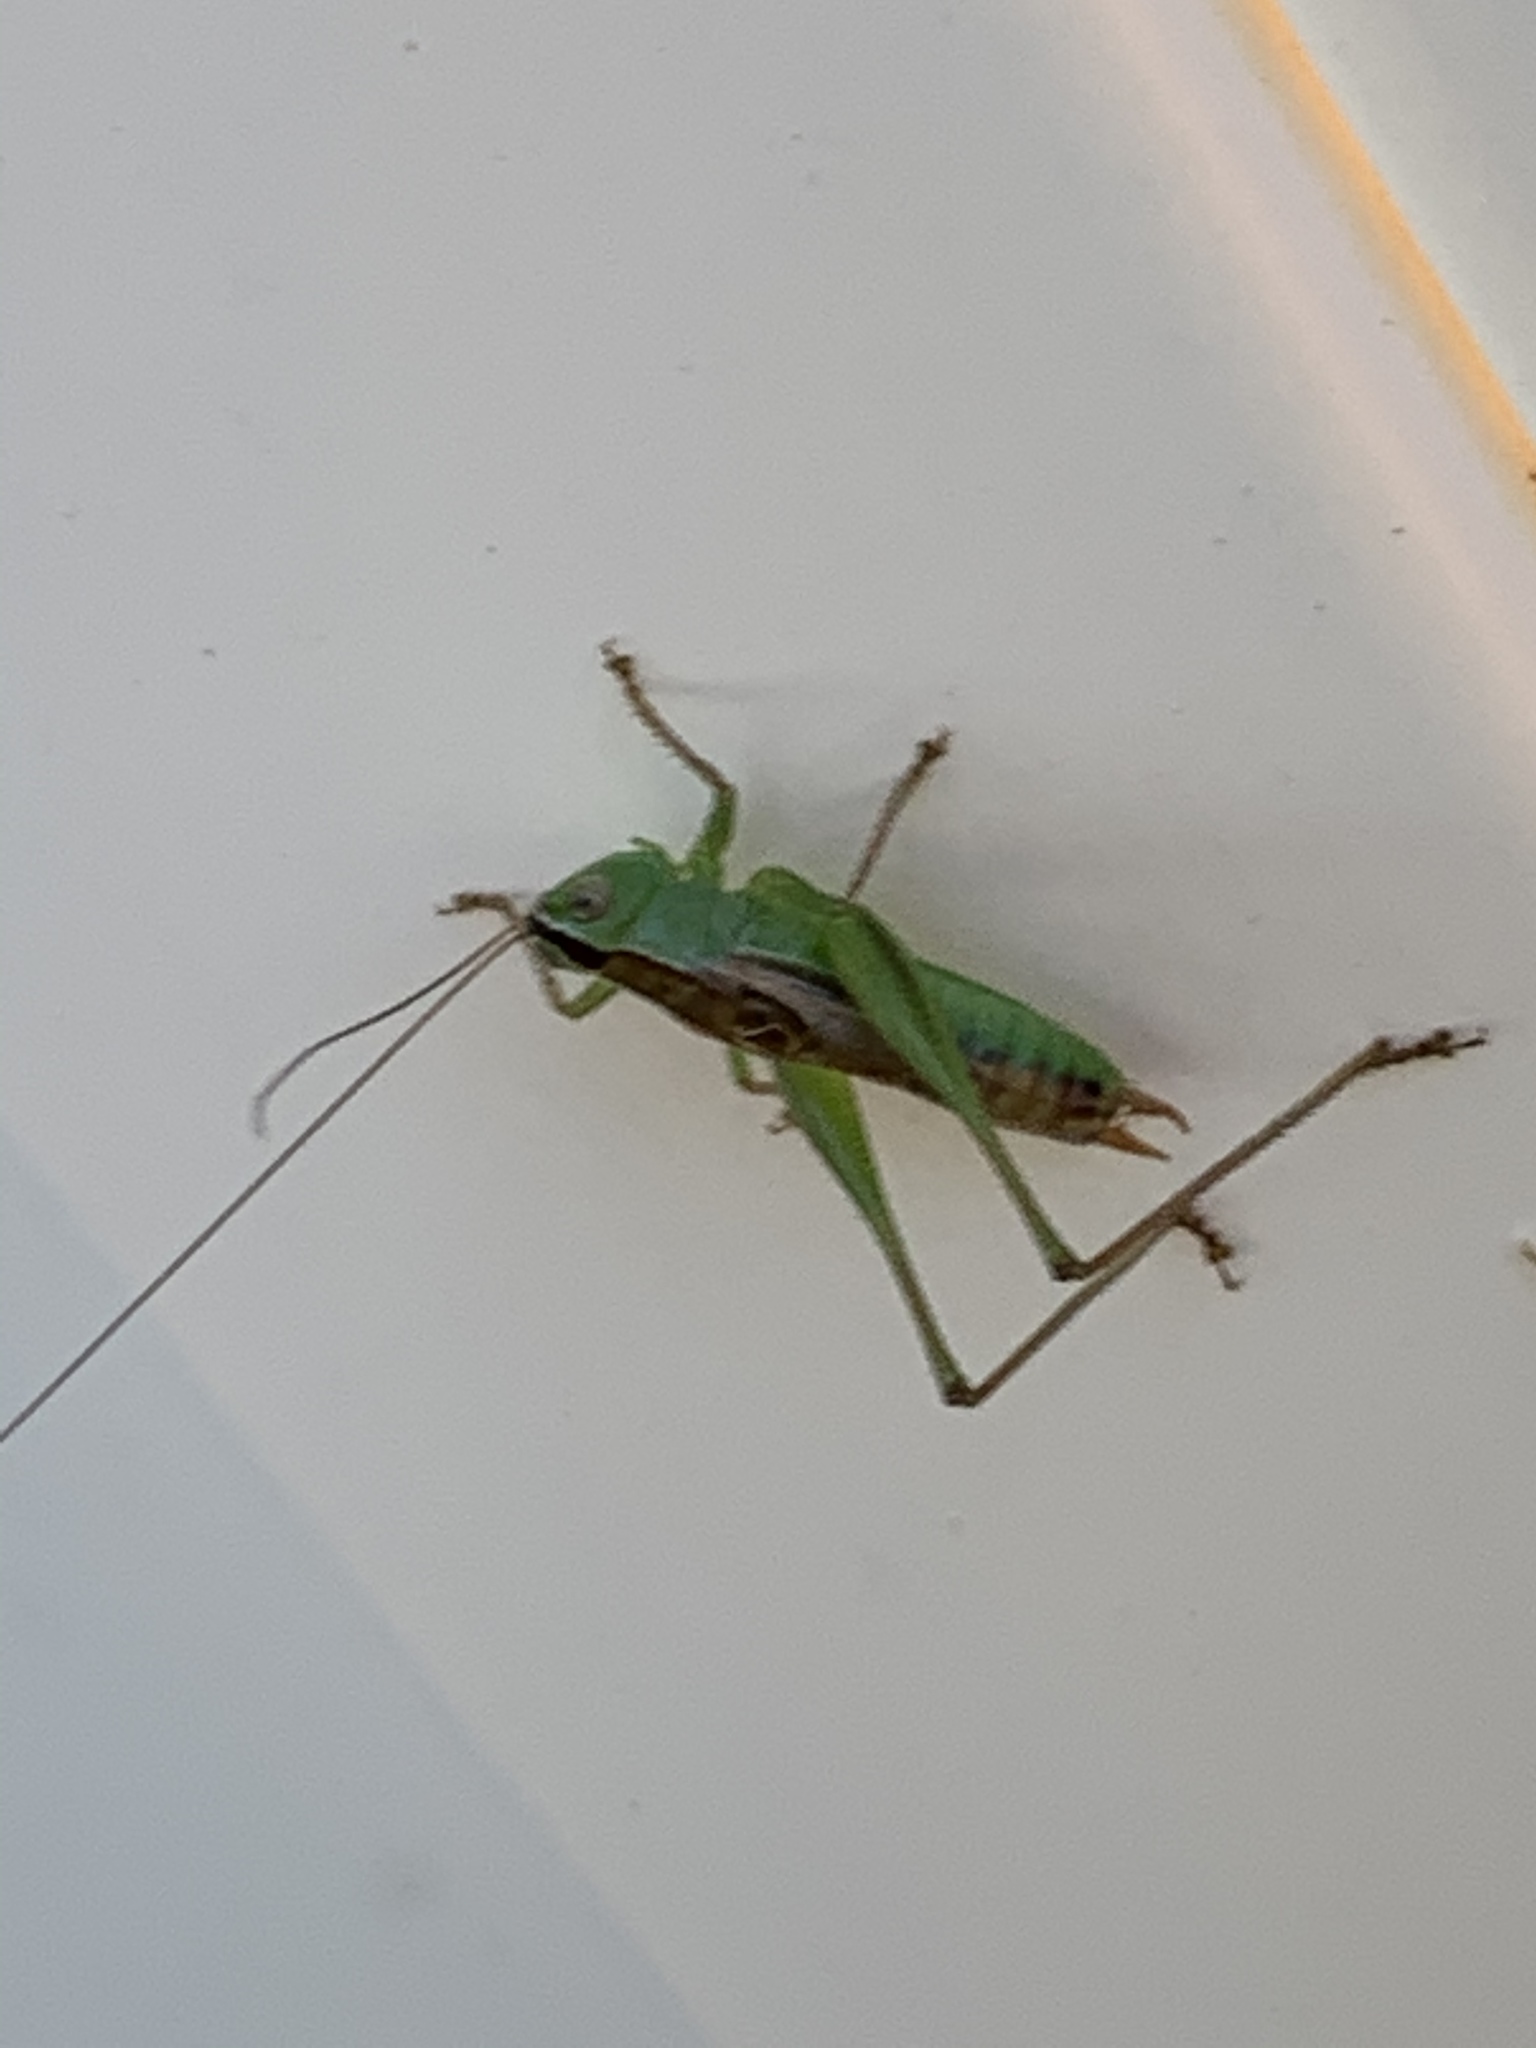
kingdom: Animalia
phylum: Arthropoda
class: Insecta
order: Orthoptera
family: Tettigoniidae
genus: Conocephalus
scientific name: Conocephalus strictus
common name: Straight-lanced katydid
